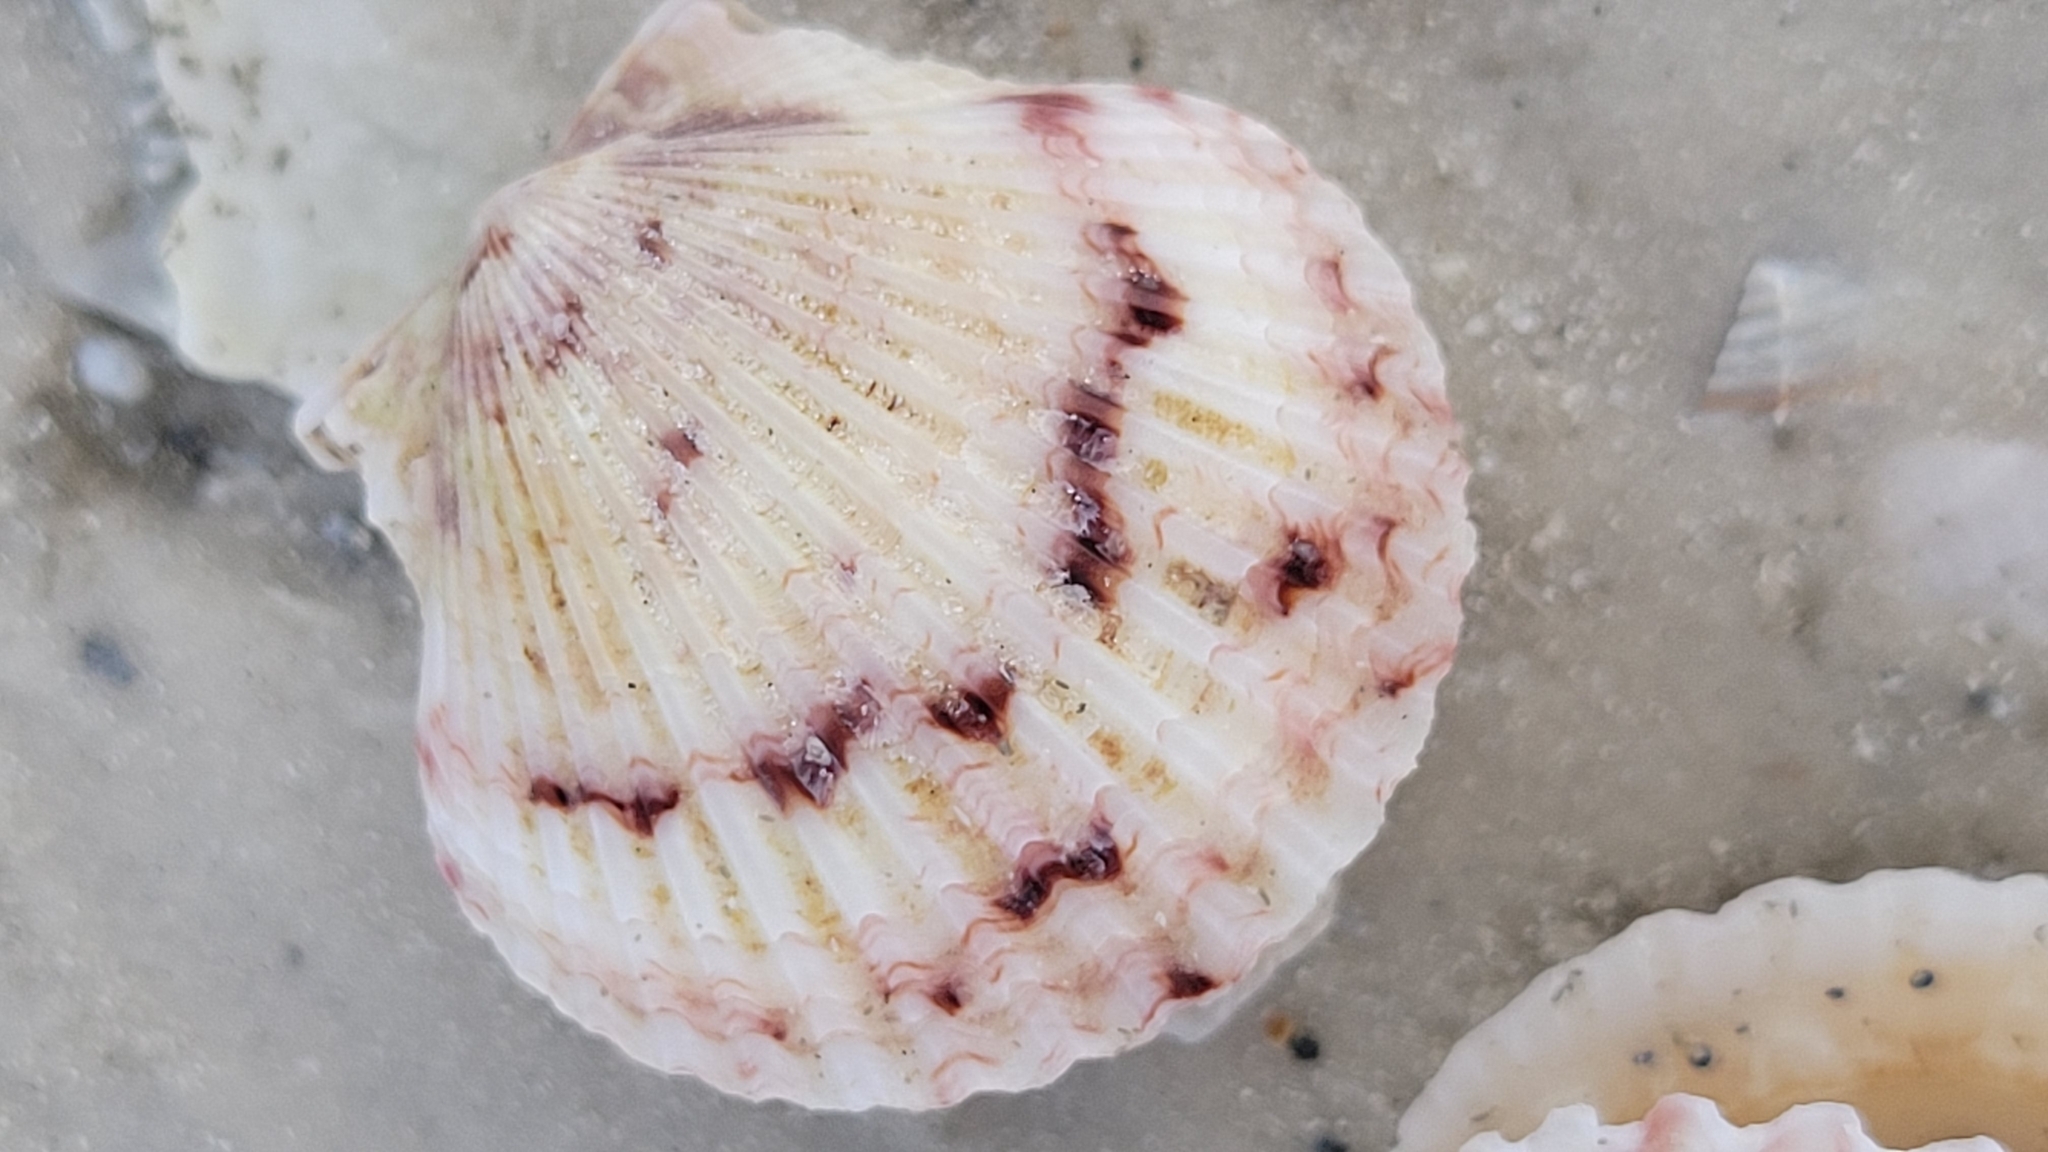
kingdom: Animalia
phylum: Mollusca
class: Bivalvia
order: Pectinida
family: Pectinidae
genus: Argopecten
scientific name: Argopecten gibbus
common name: Atlantic calico scallop
